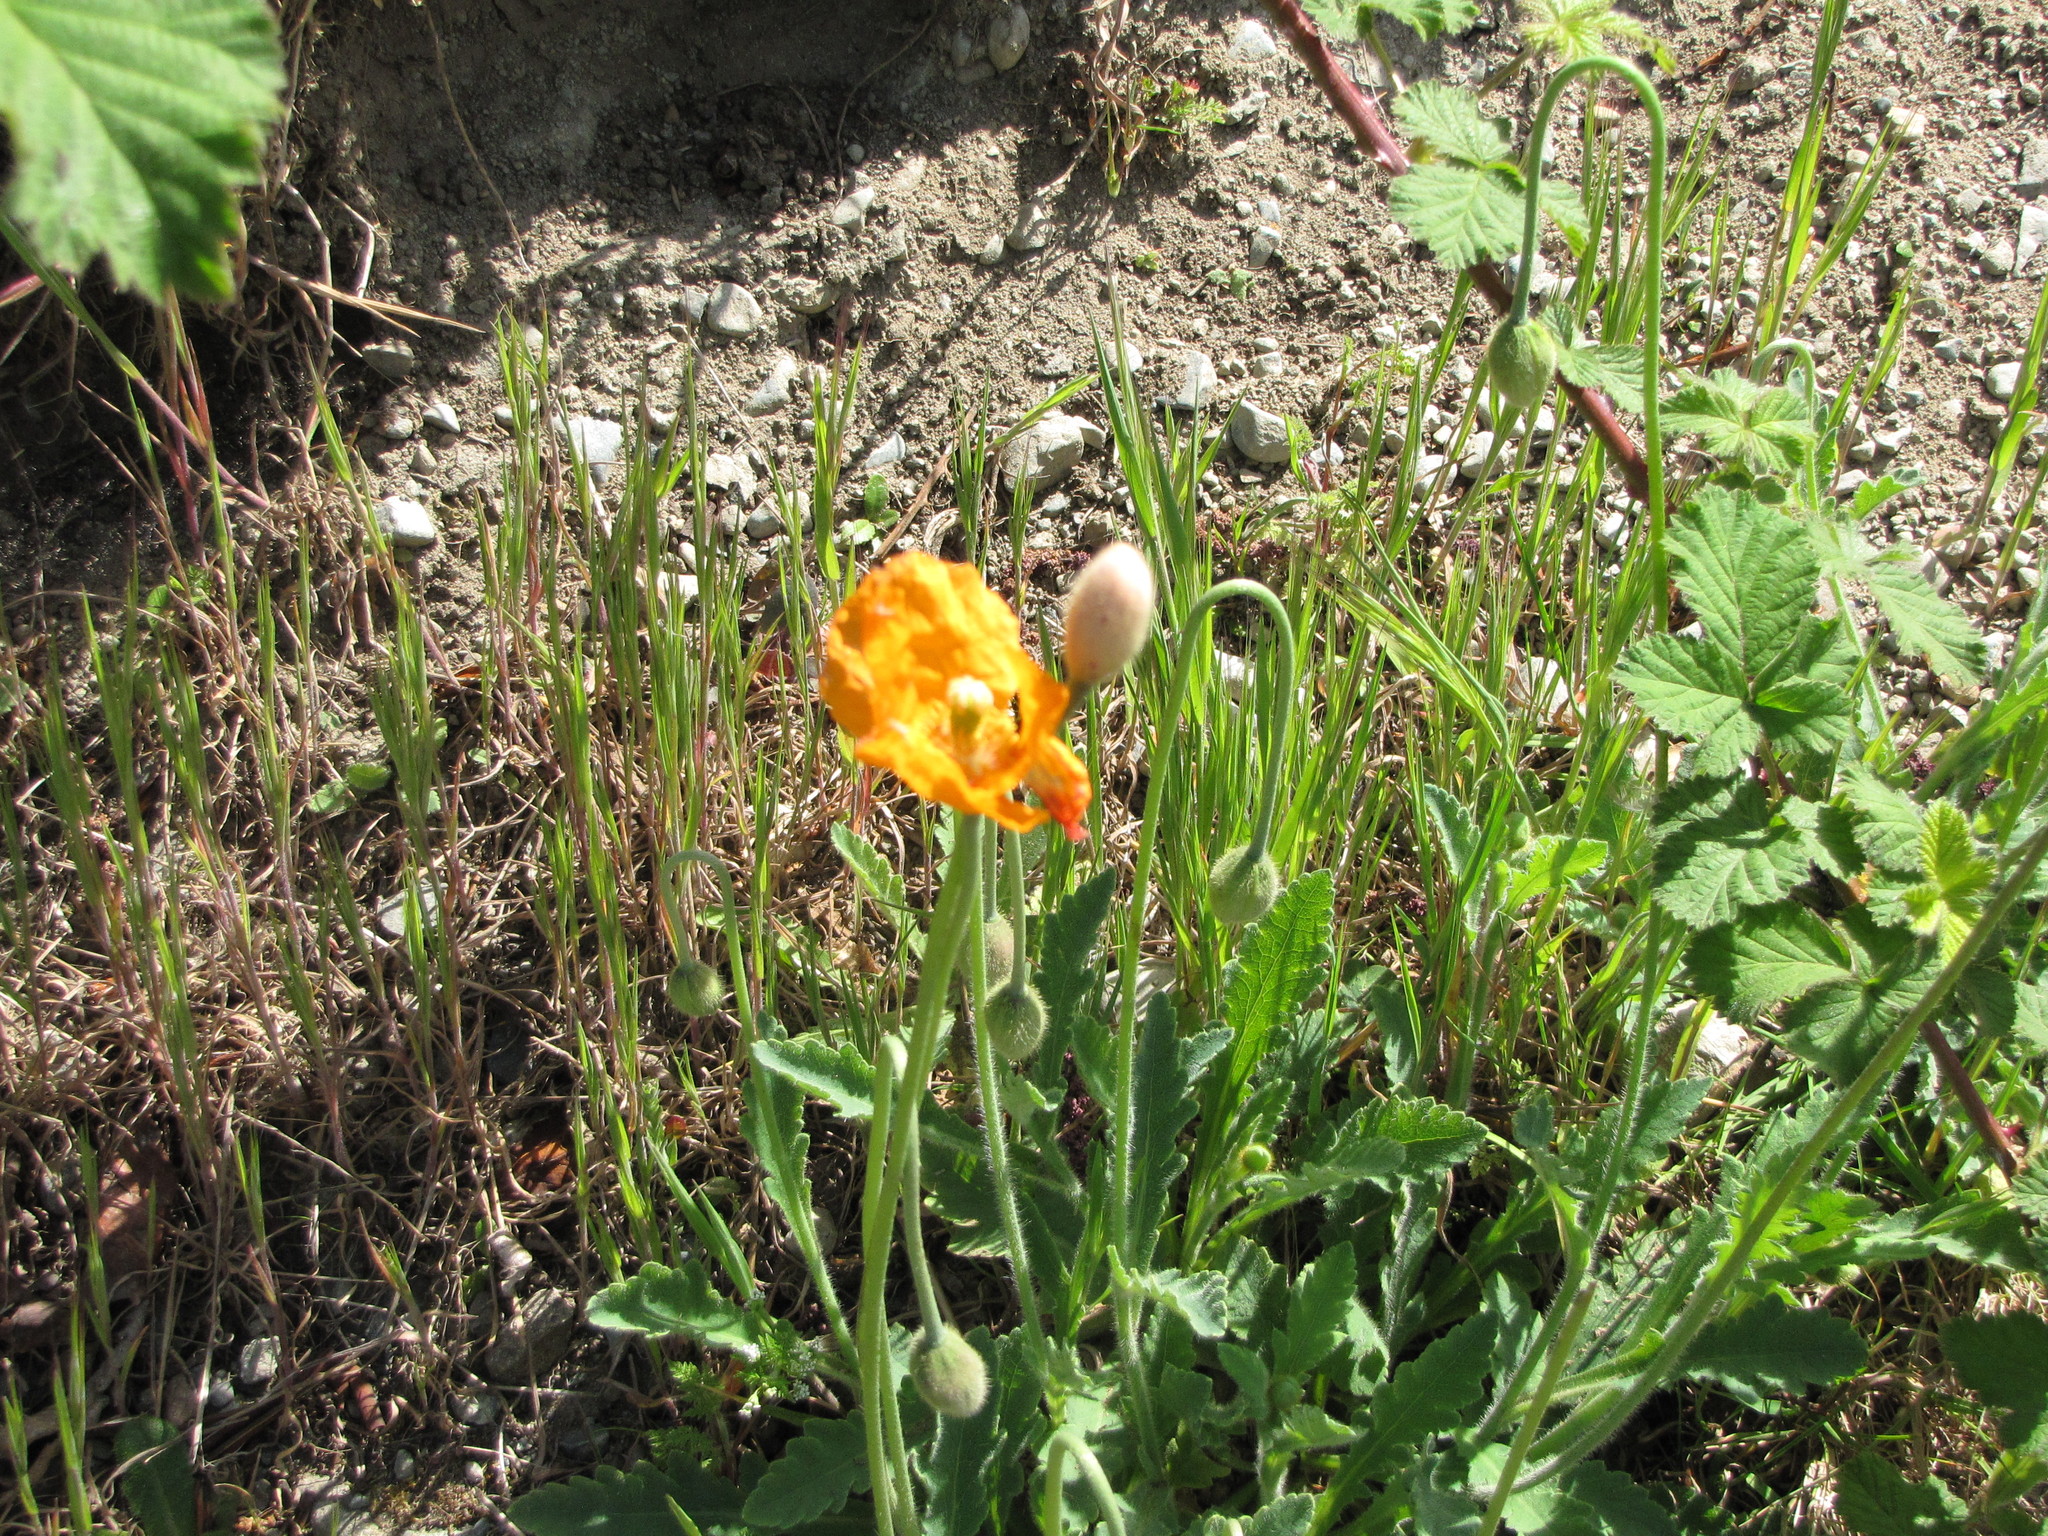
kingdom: Plantae
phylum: Tracheophyta
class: Magnoliopsida
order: Ranunculales
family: Papaveraceae
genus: Papaver
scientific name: Papaver atlanticum
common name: Atlas poppy
